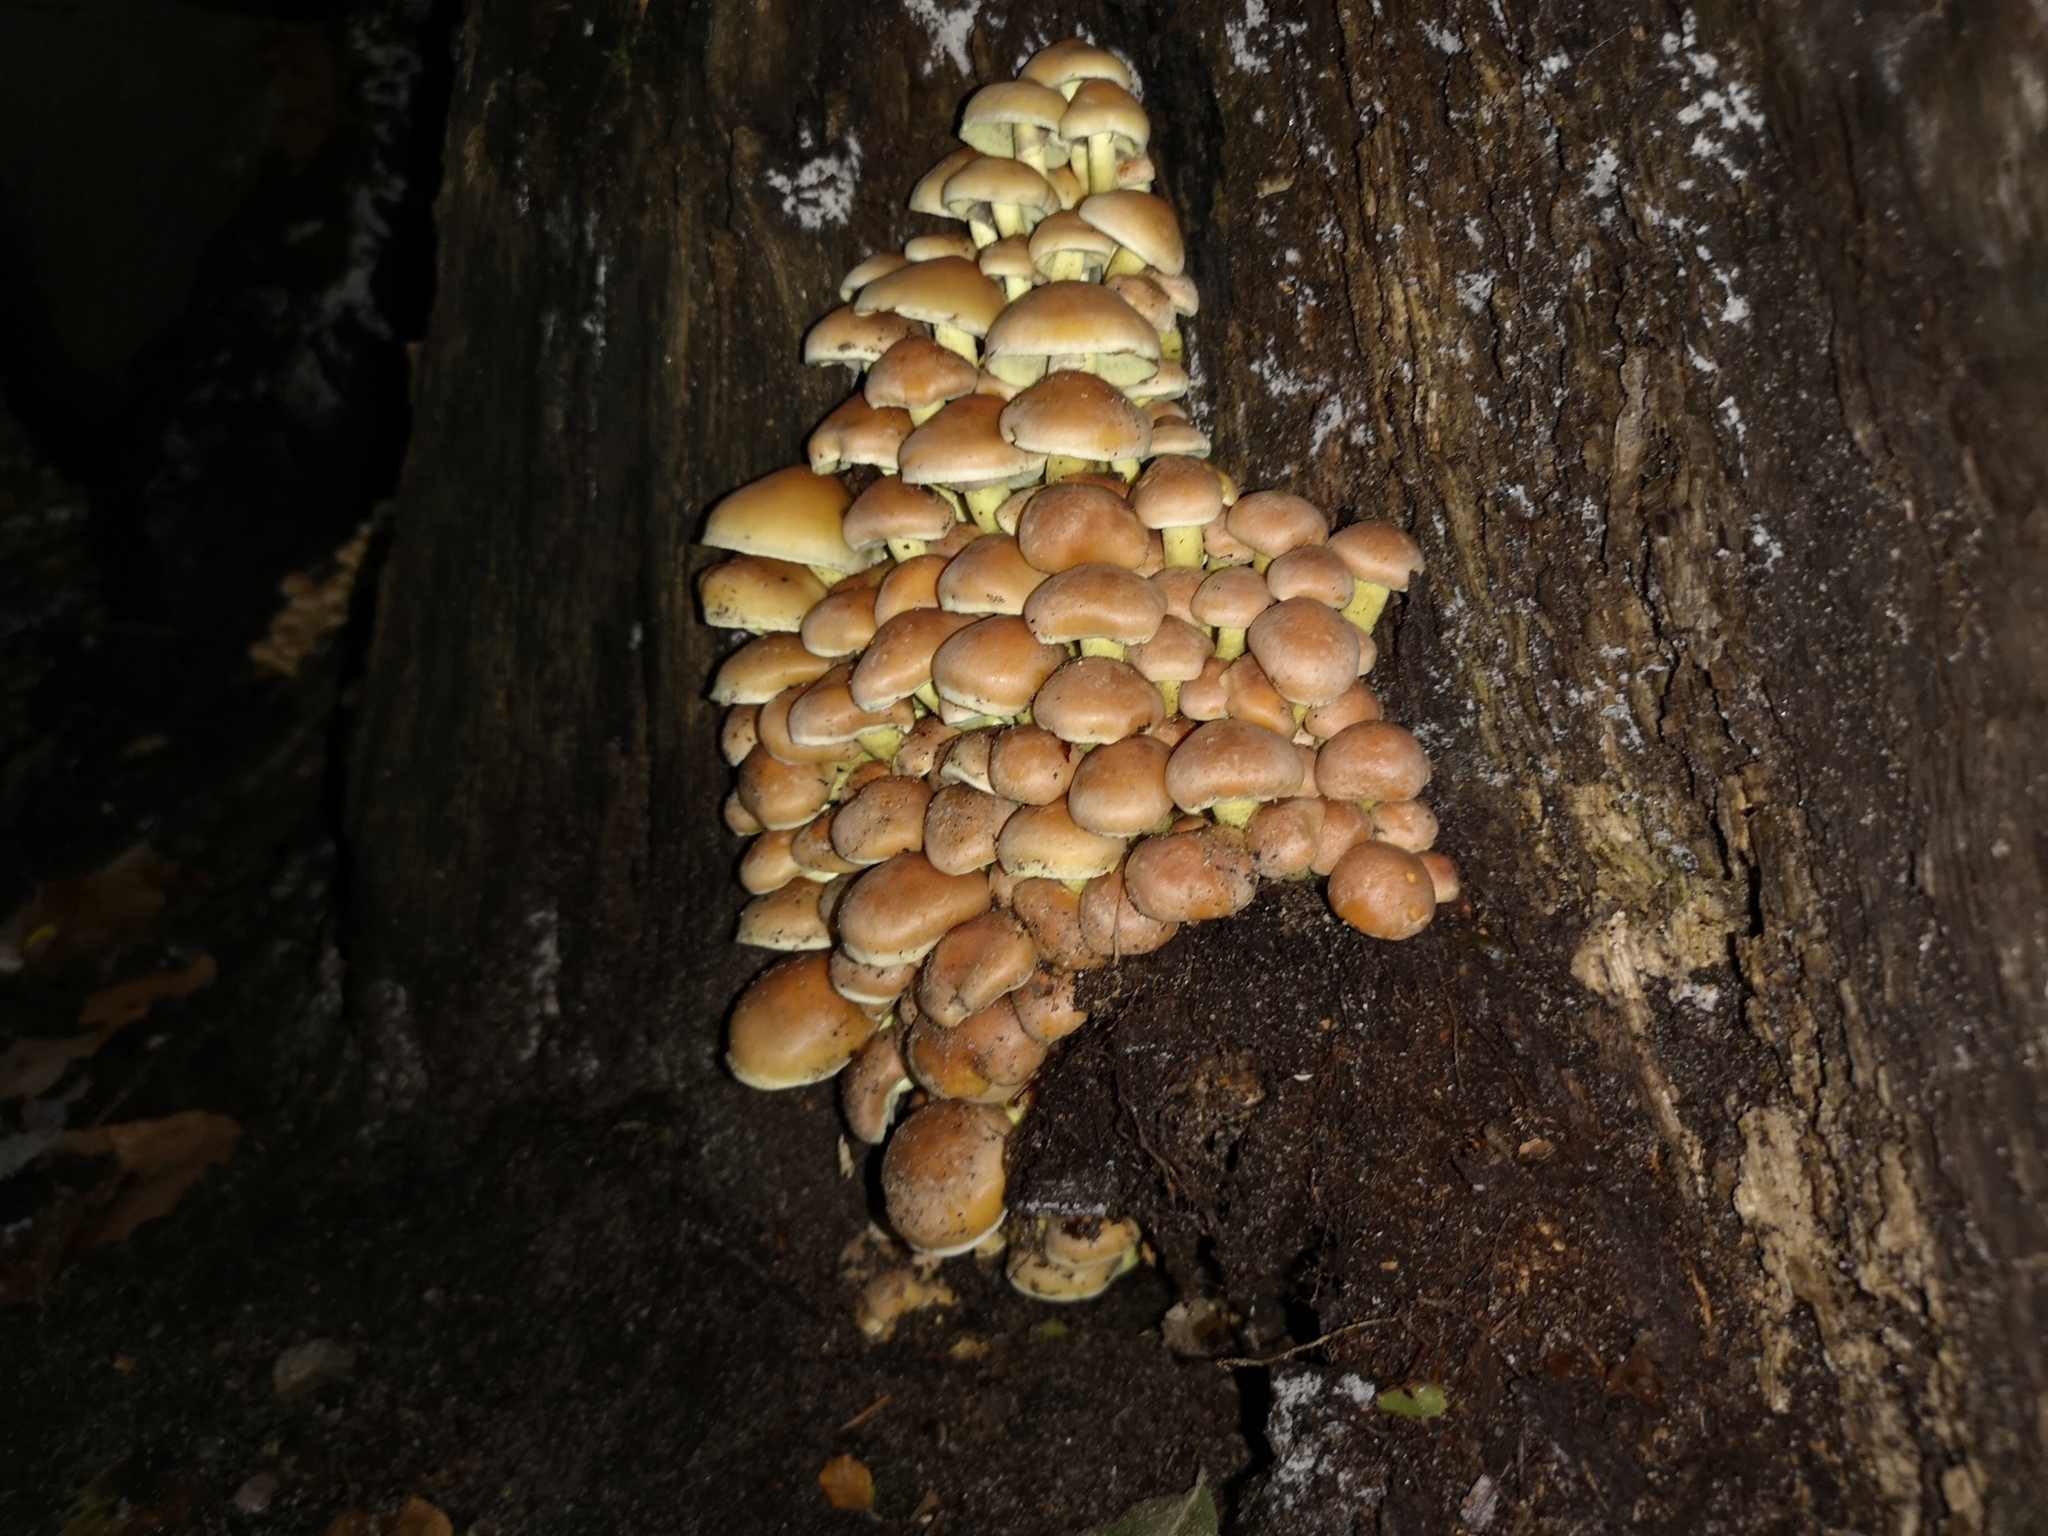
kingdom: Fungi
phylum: Basidiomycota
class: Agaricomycetes
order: Agaricales
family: Strophariaceae
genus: Hypholoma
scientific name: Hypholoma fasciculare
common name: Sulphur tuft
